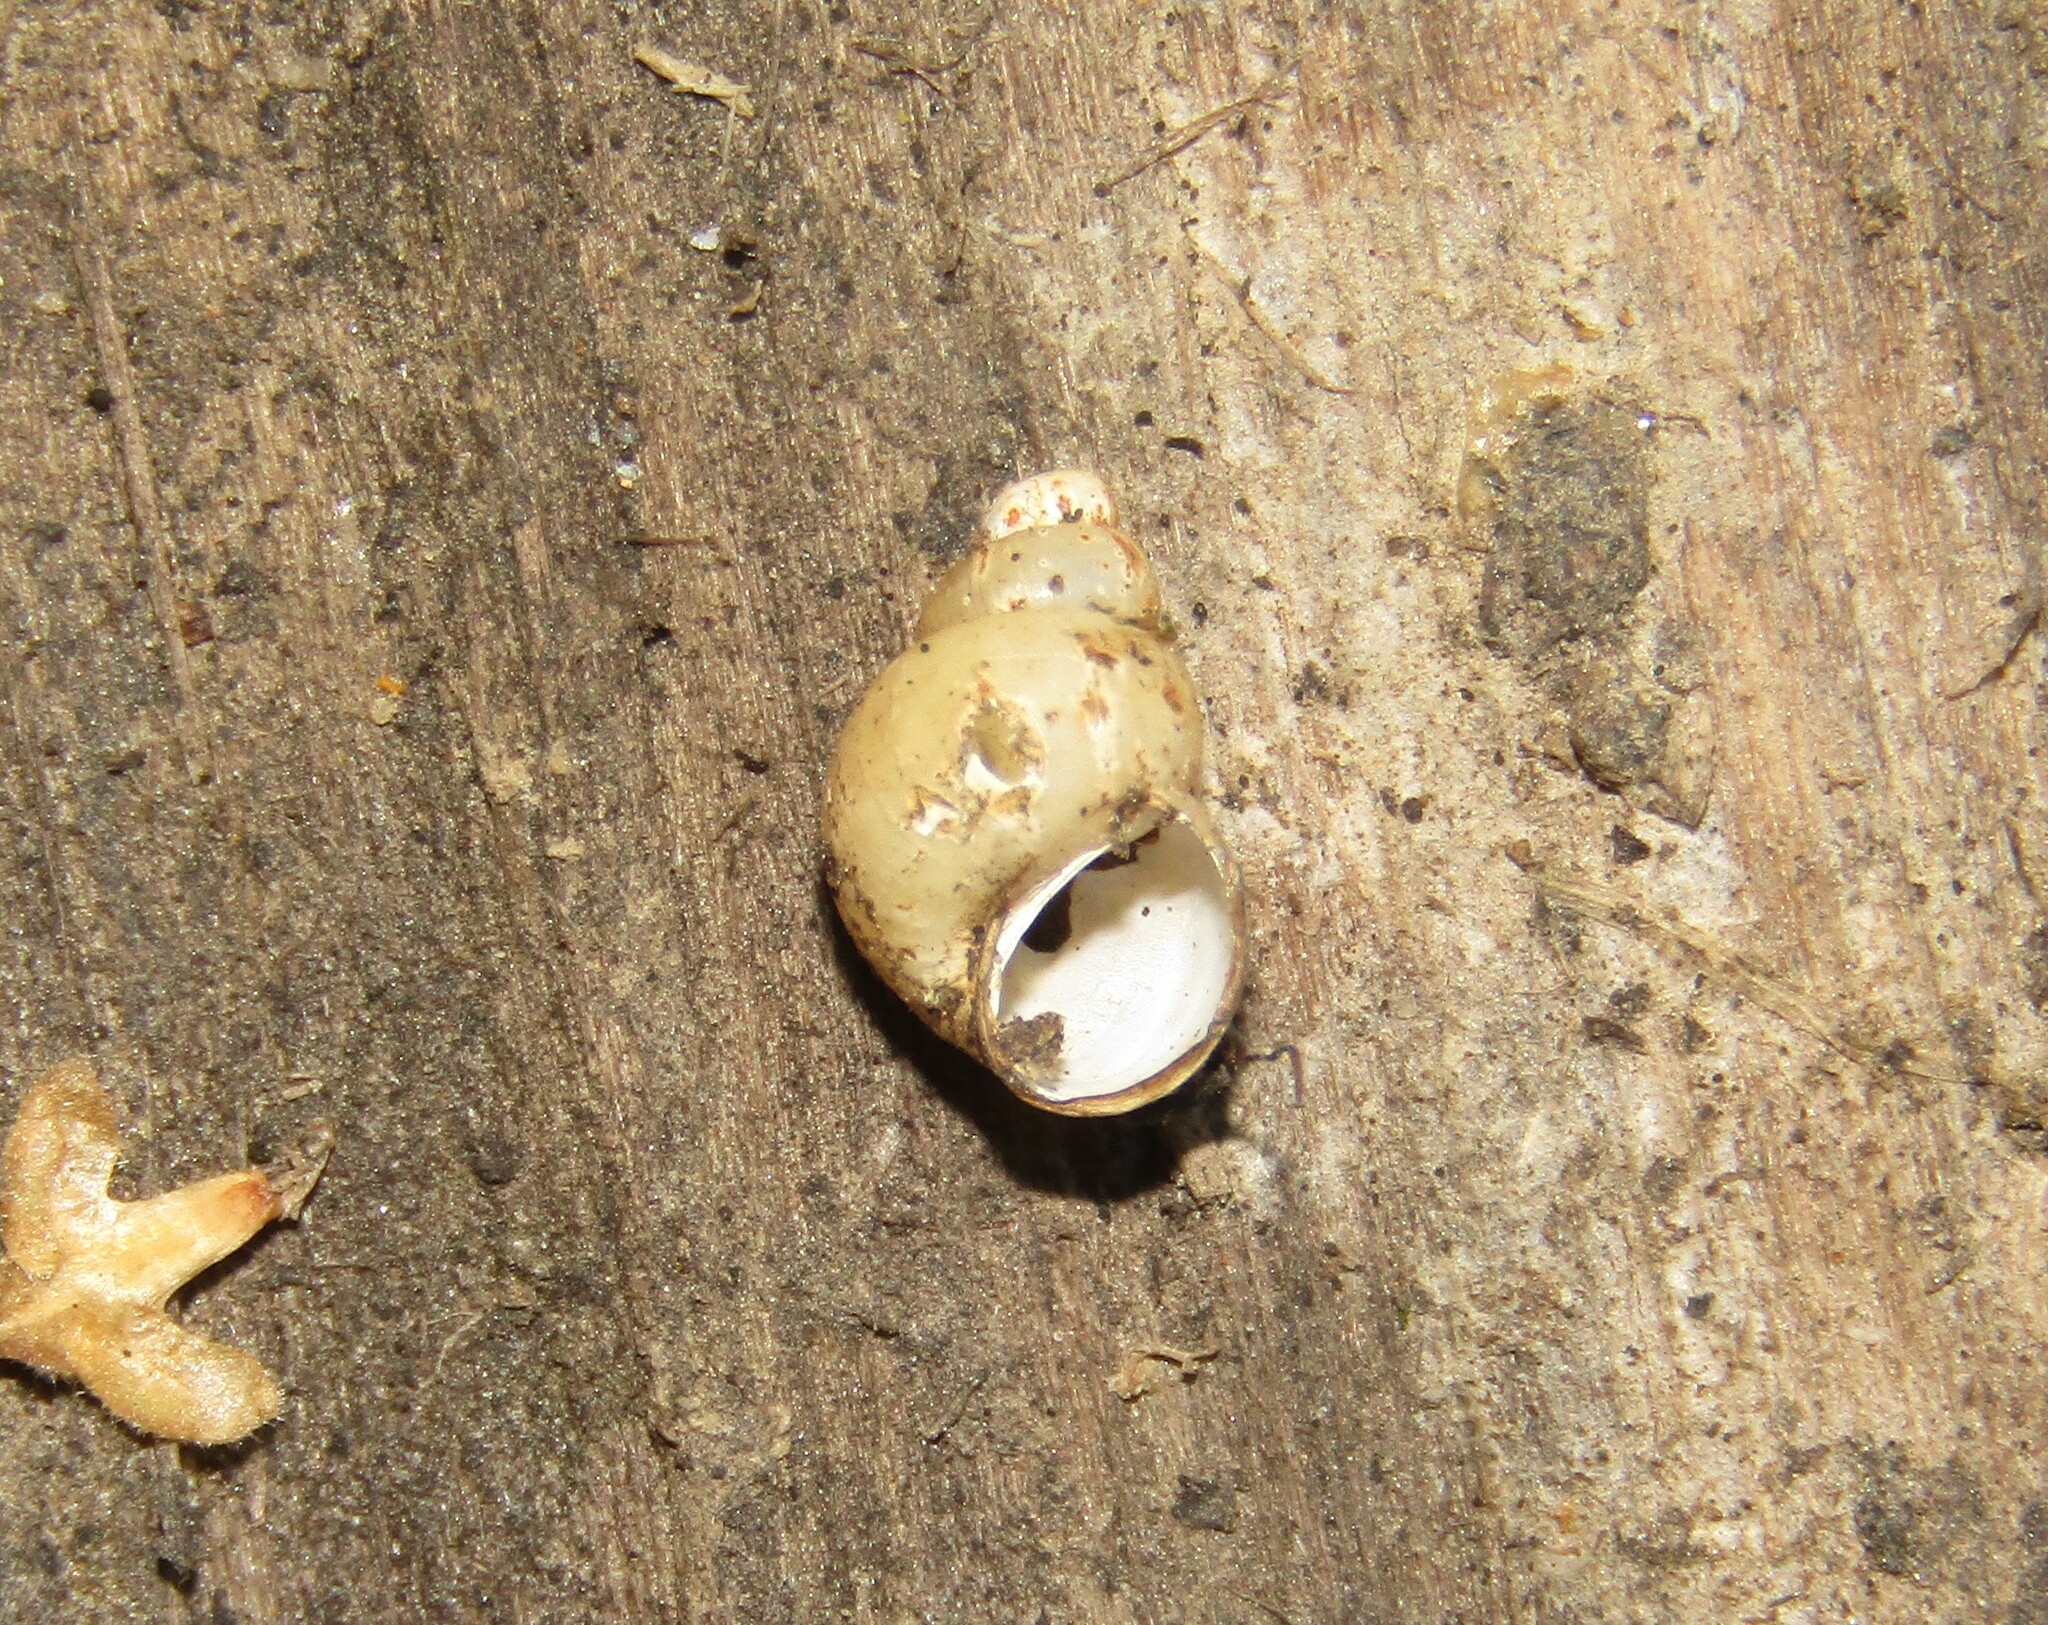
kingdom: Animalia
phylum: Mollusca
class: Gastropoda
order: Littorinimorpha
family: Bithyniidae
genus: Bithynia
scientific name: Bithynia tentaculata
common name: Common bithynia
